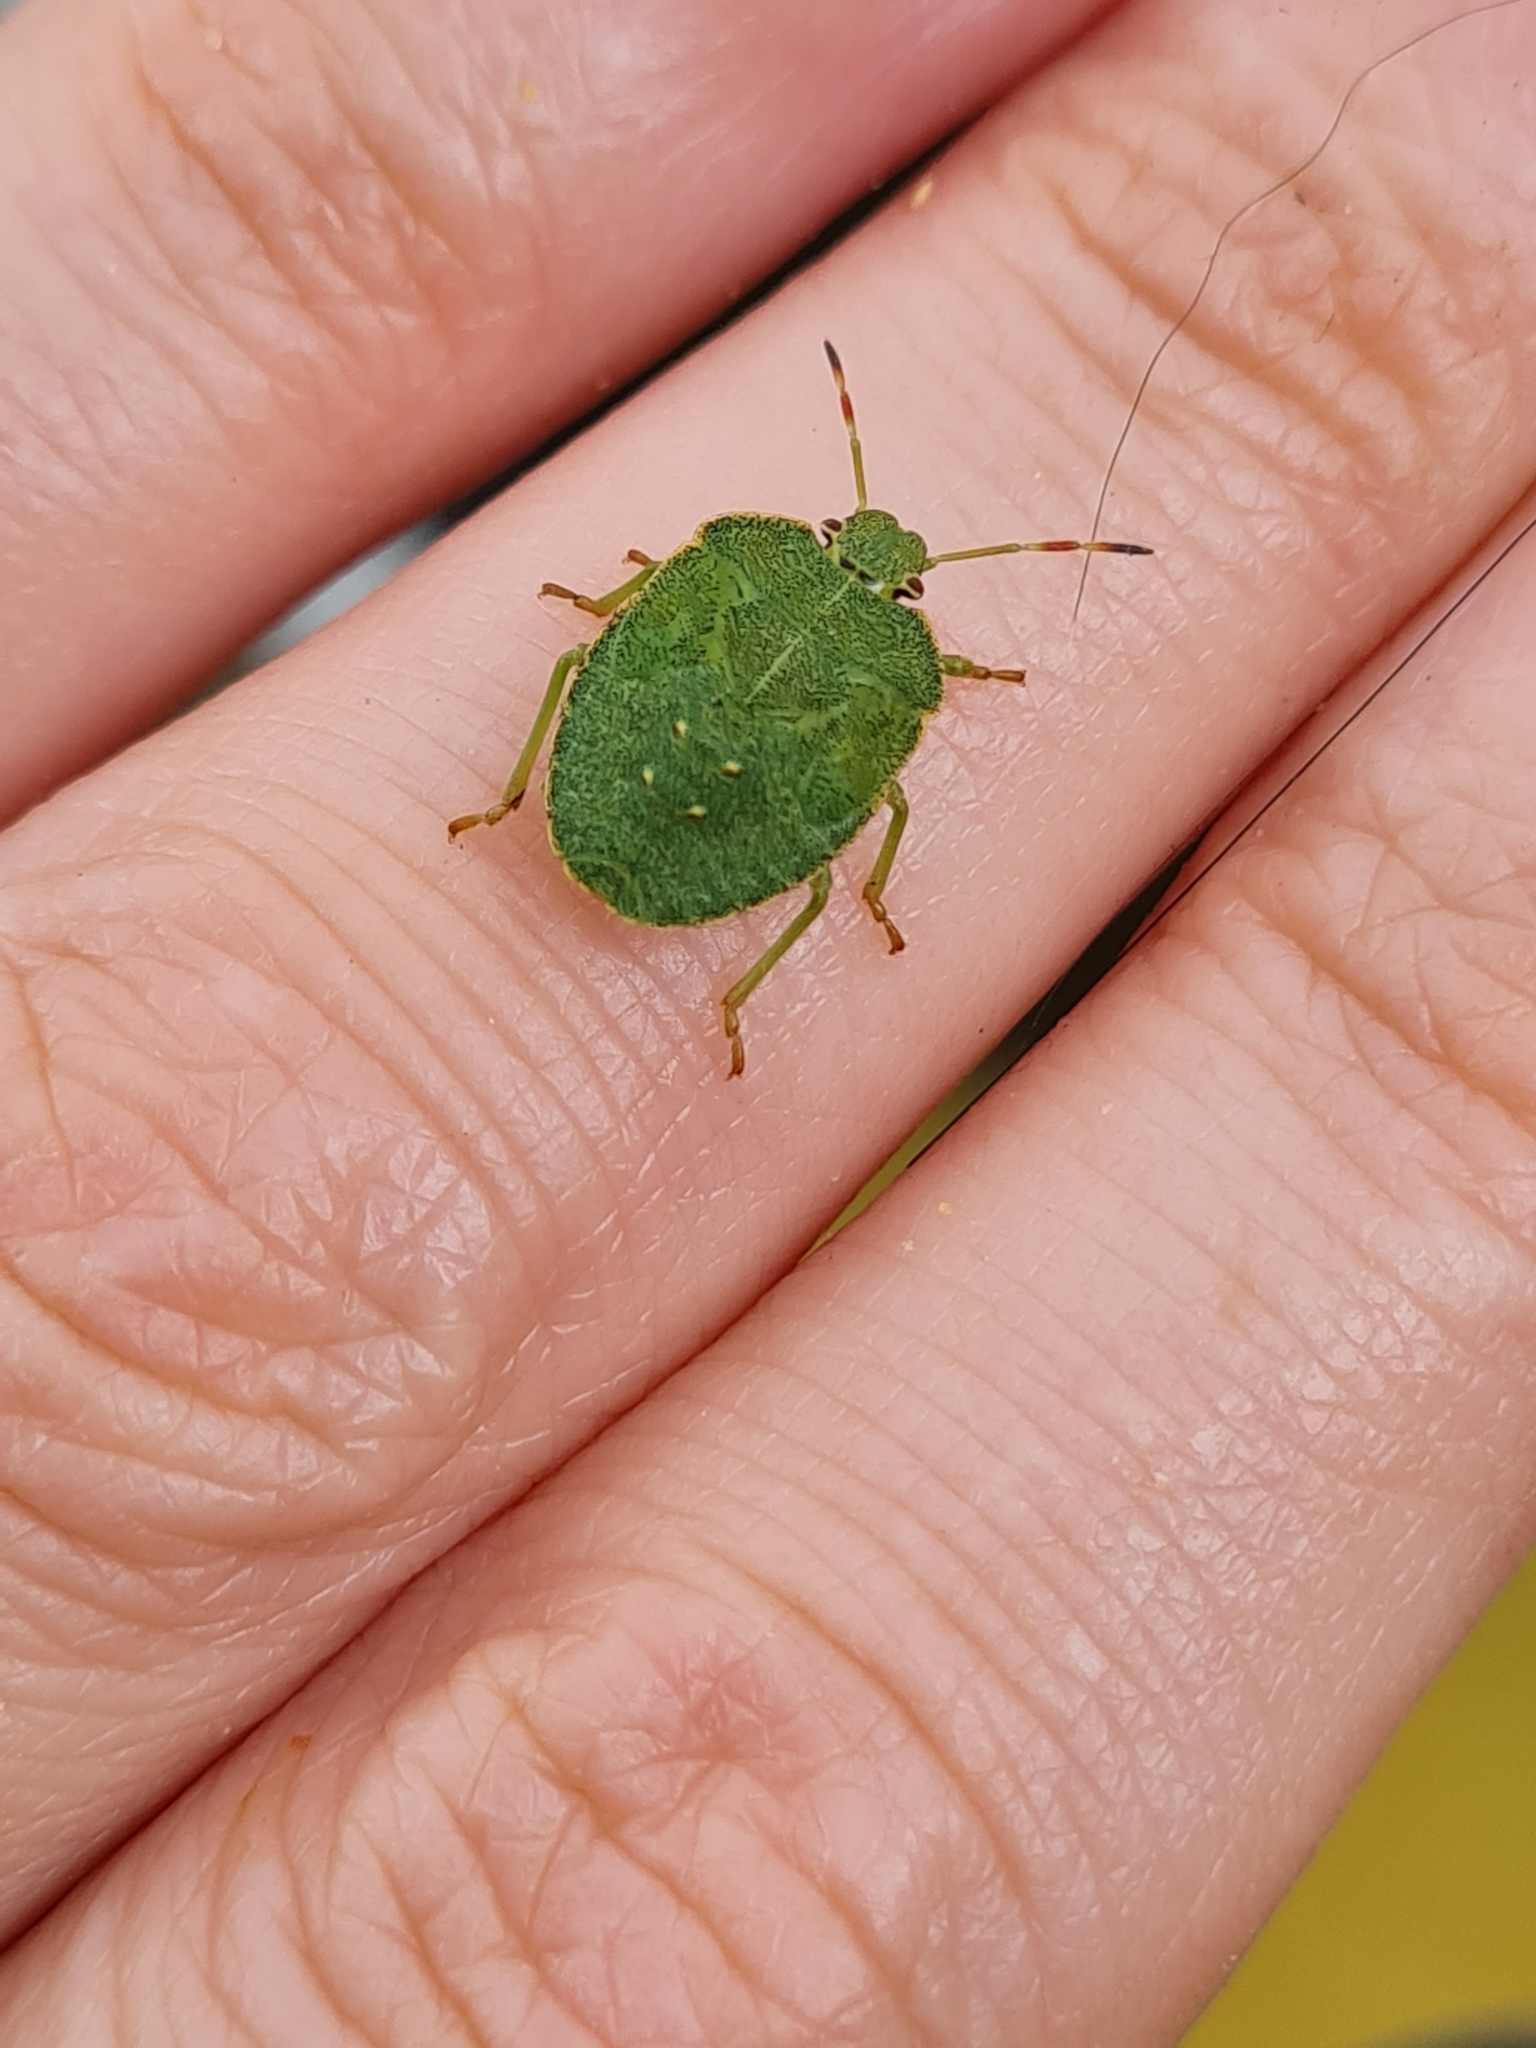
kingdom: Animalia
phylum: Arthropoda
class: Insecta
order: Hemiptera
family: Pentatomidae
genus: Palomena
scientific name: Palomena prasina
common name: Green shieldbug
